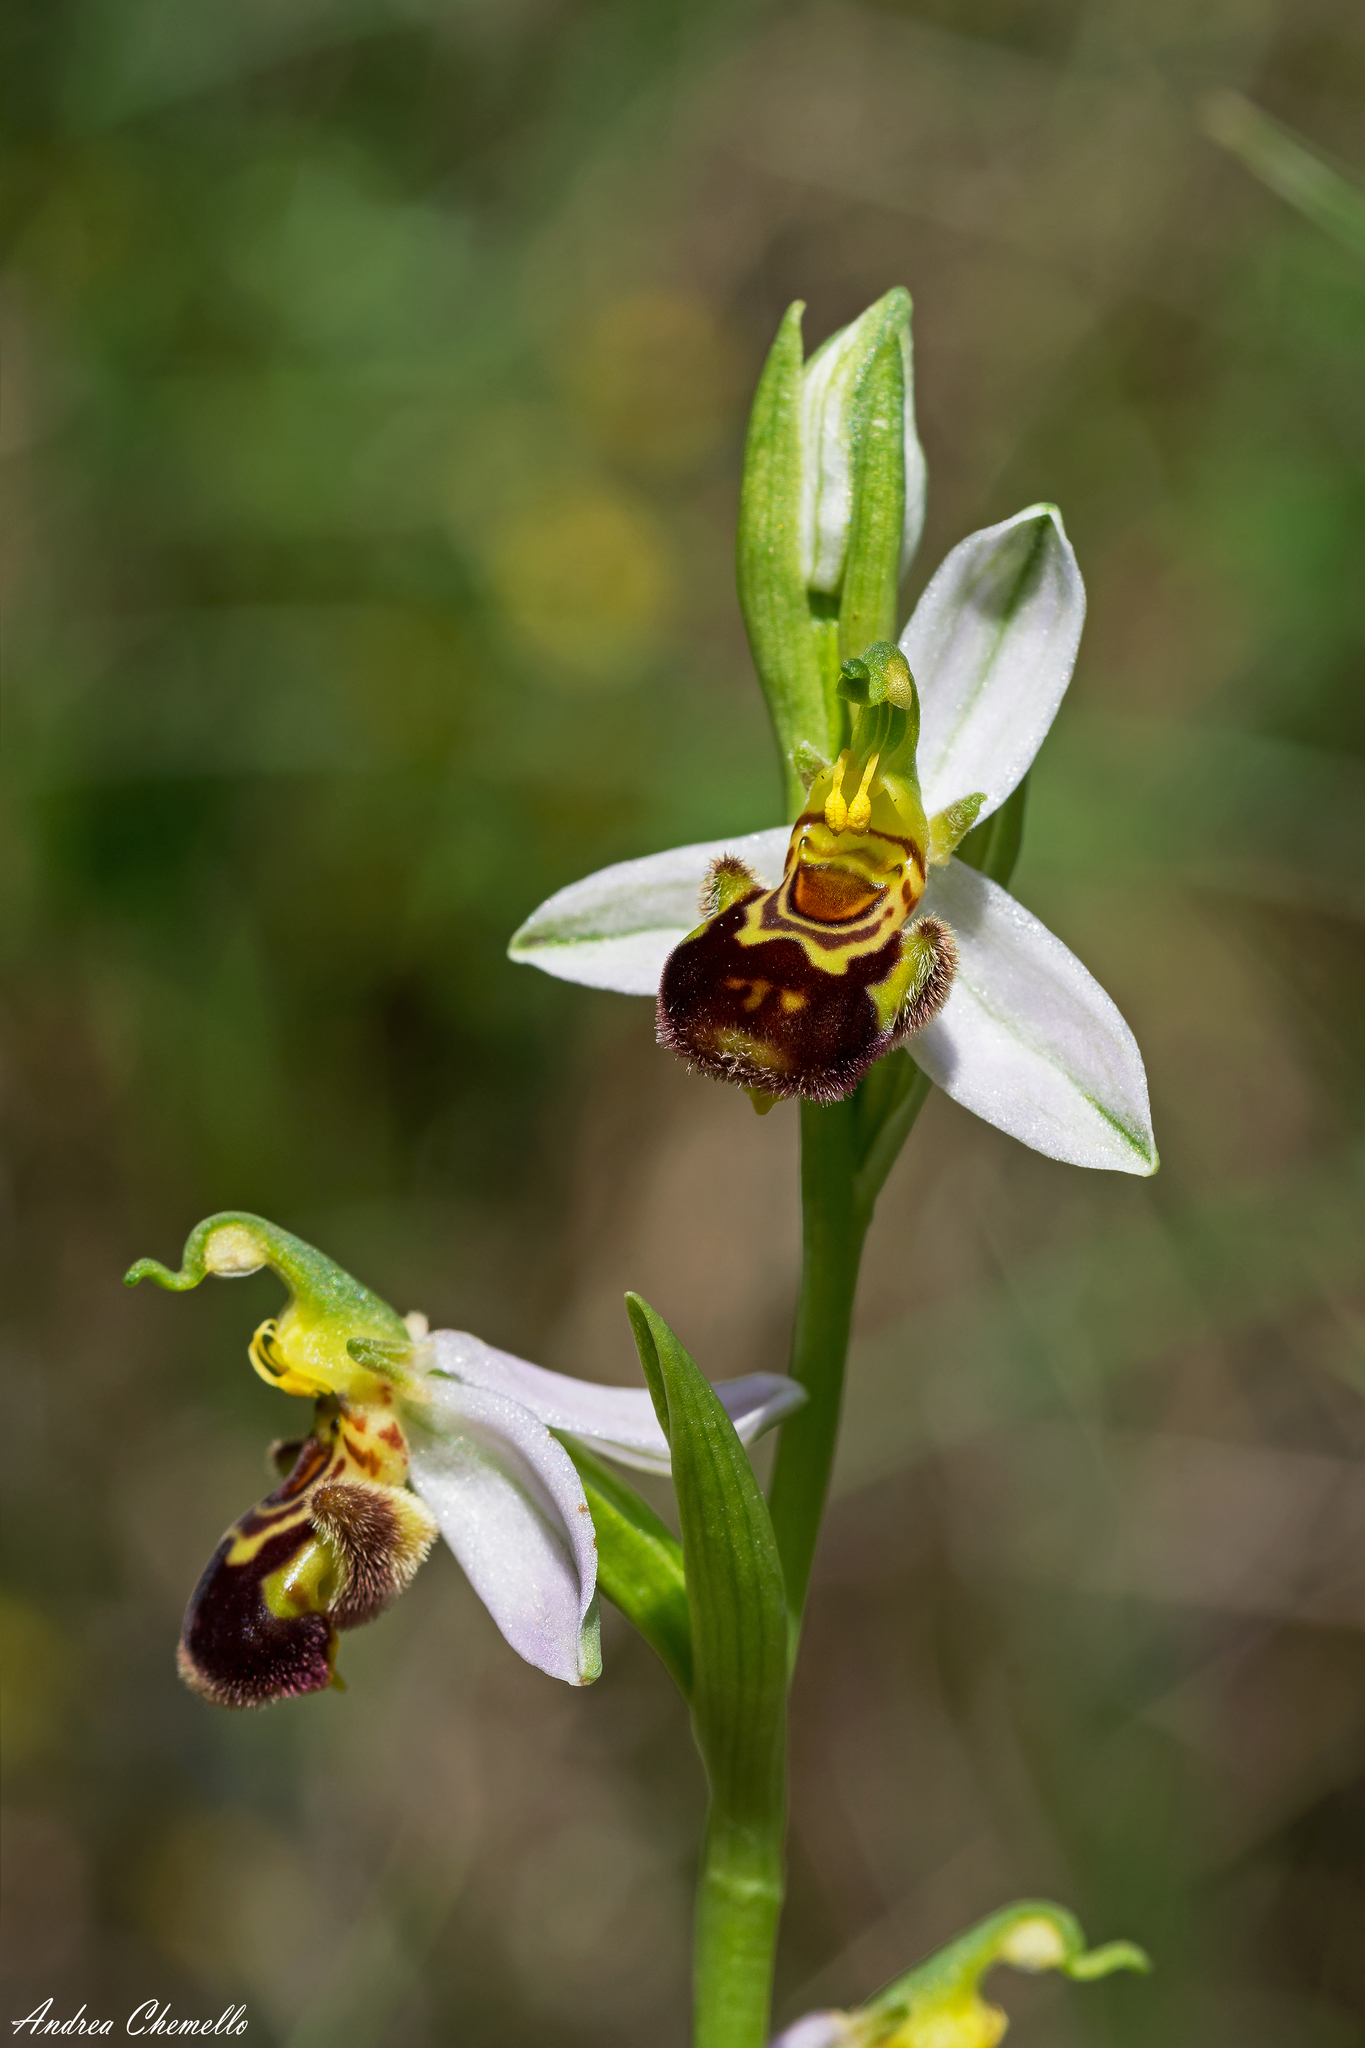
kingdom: Plantae
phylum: Tracheophyta
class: Liliopsida
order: Asparagales
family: Orchidaceae
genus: Ophrys
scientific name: Ophrys apifera
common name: Bee orchid
